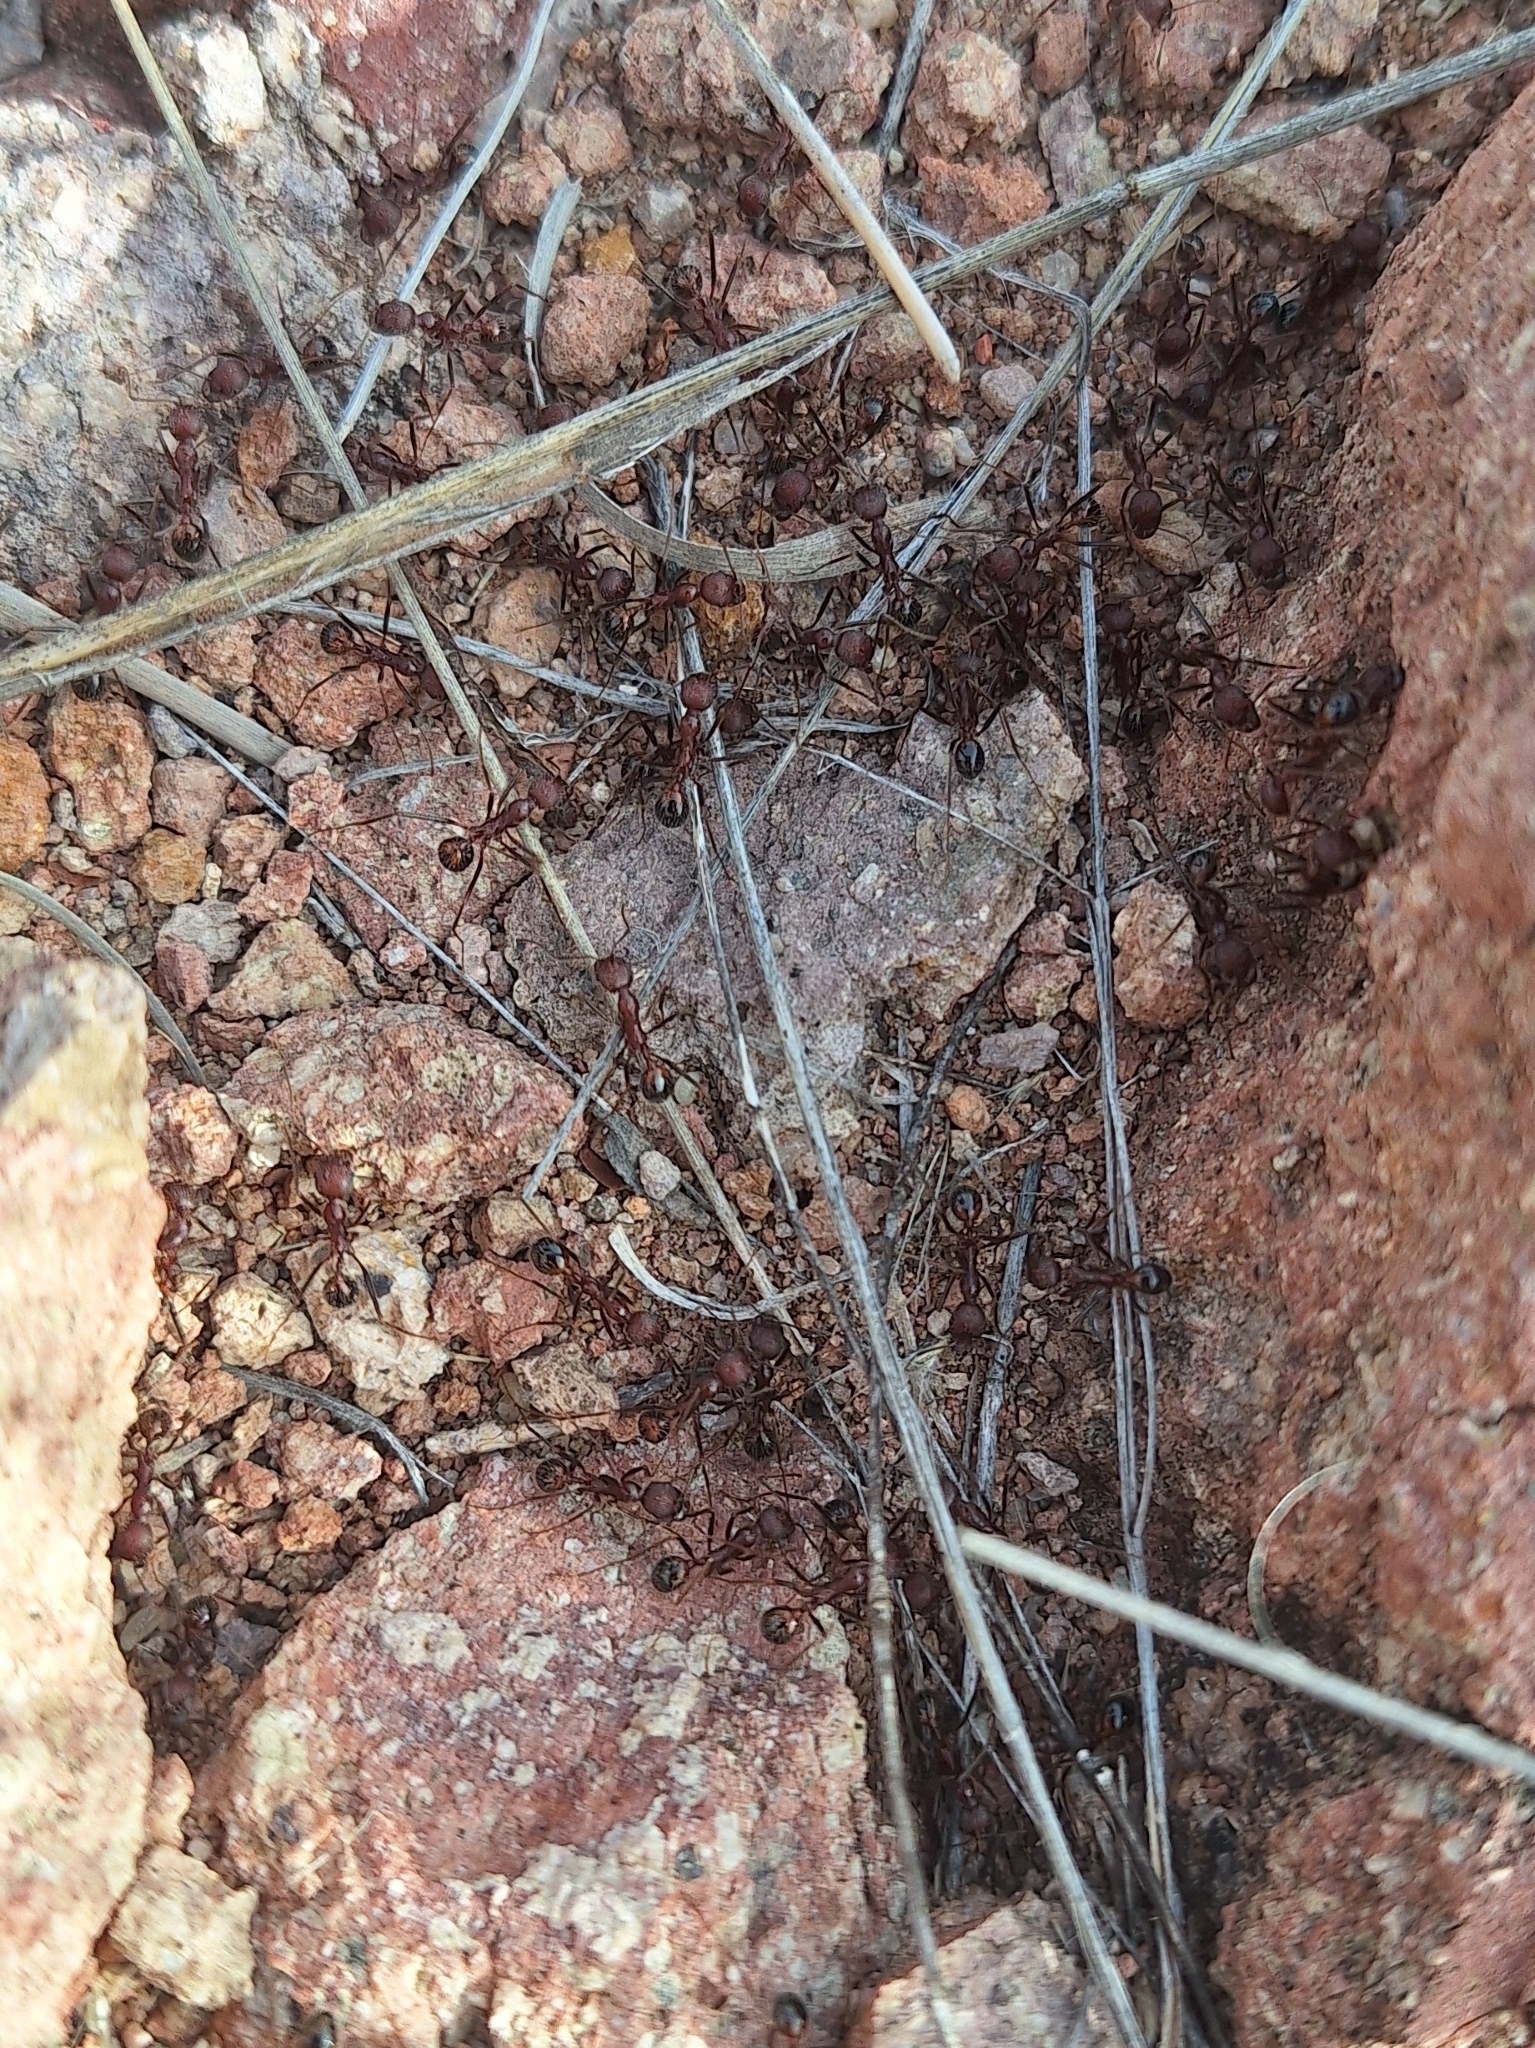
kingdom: Animalia
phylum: Arthropoda
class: Insecta
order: Hymenoptera
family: Formicidae
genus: Novomessor
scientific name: Novomessor albisetosa
